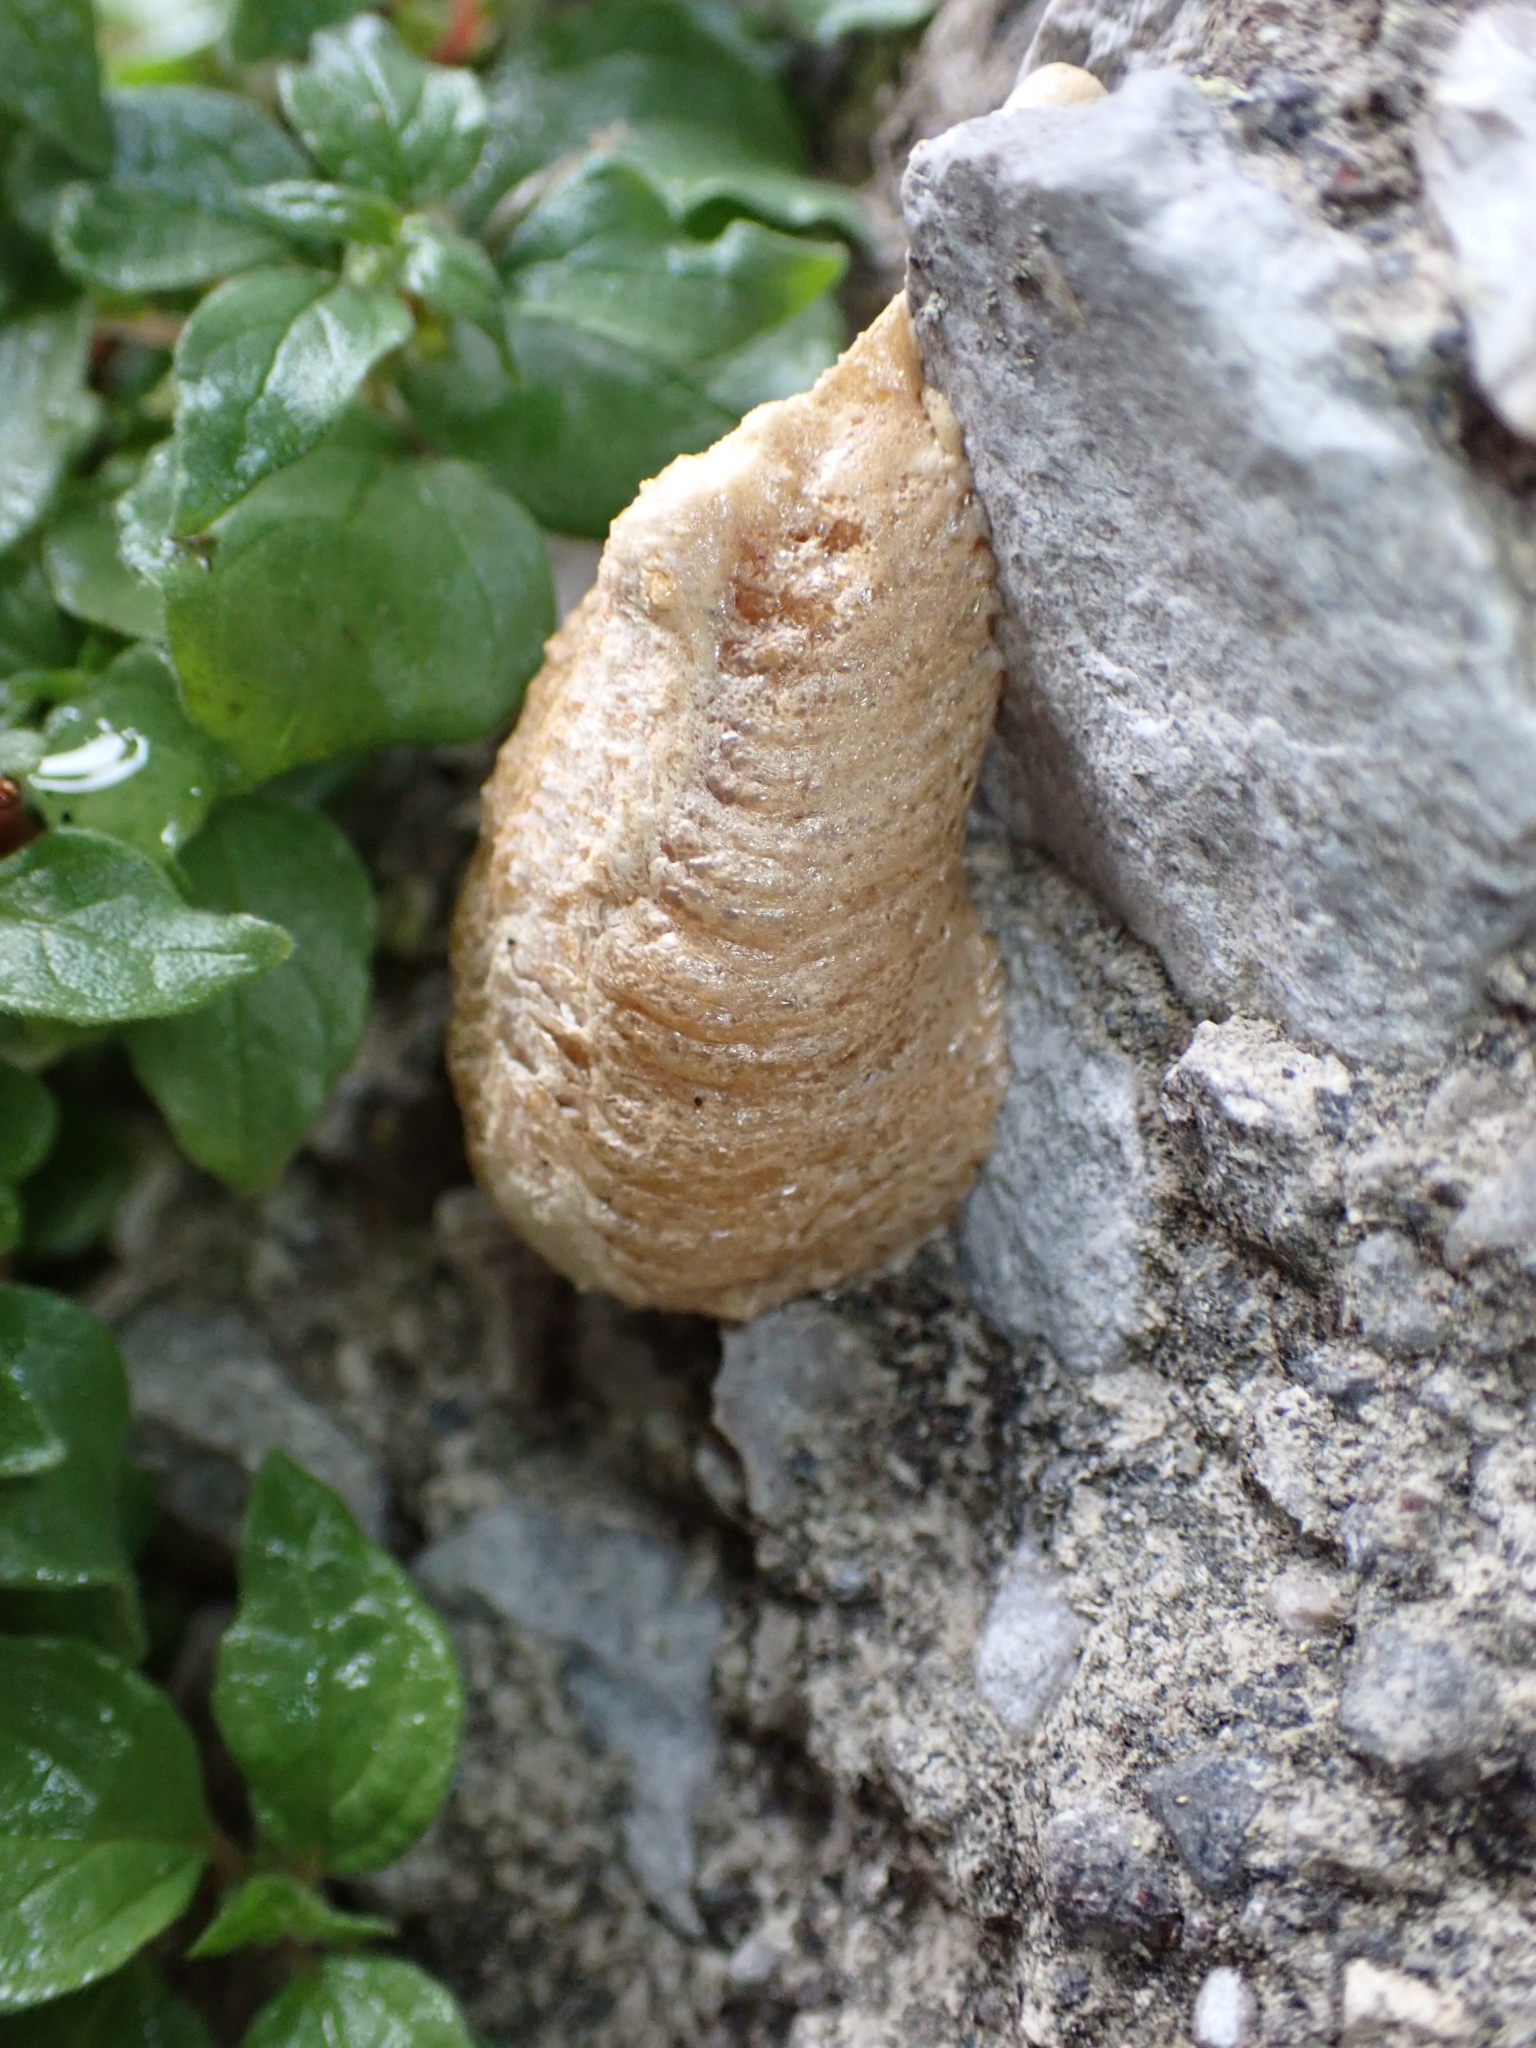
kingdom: Animalia
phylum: Arthropoda
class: Insecta
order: Mantodea
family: Mantidae
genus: Mantis
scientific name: Mantis religiosa
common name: Praying mantis
